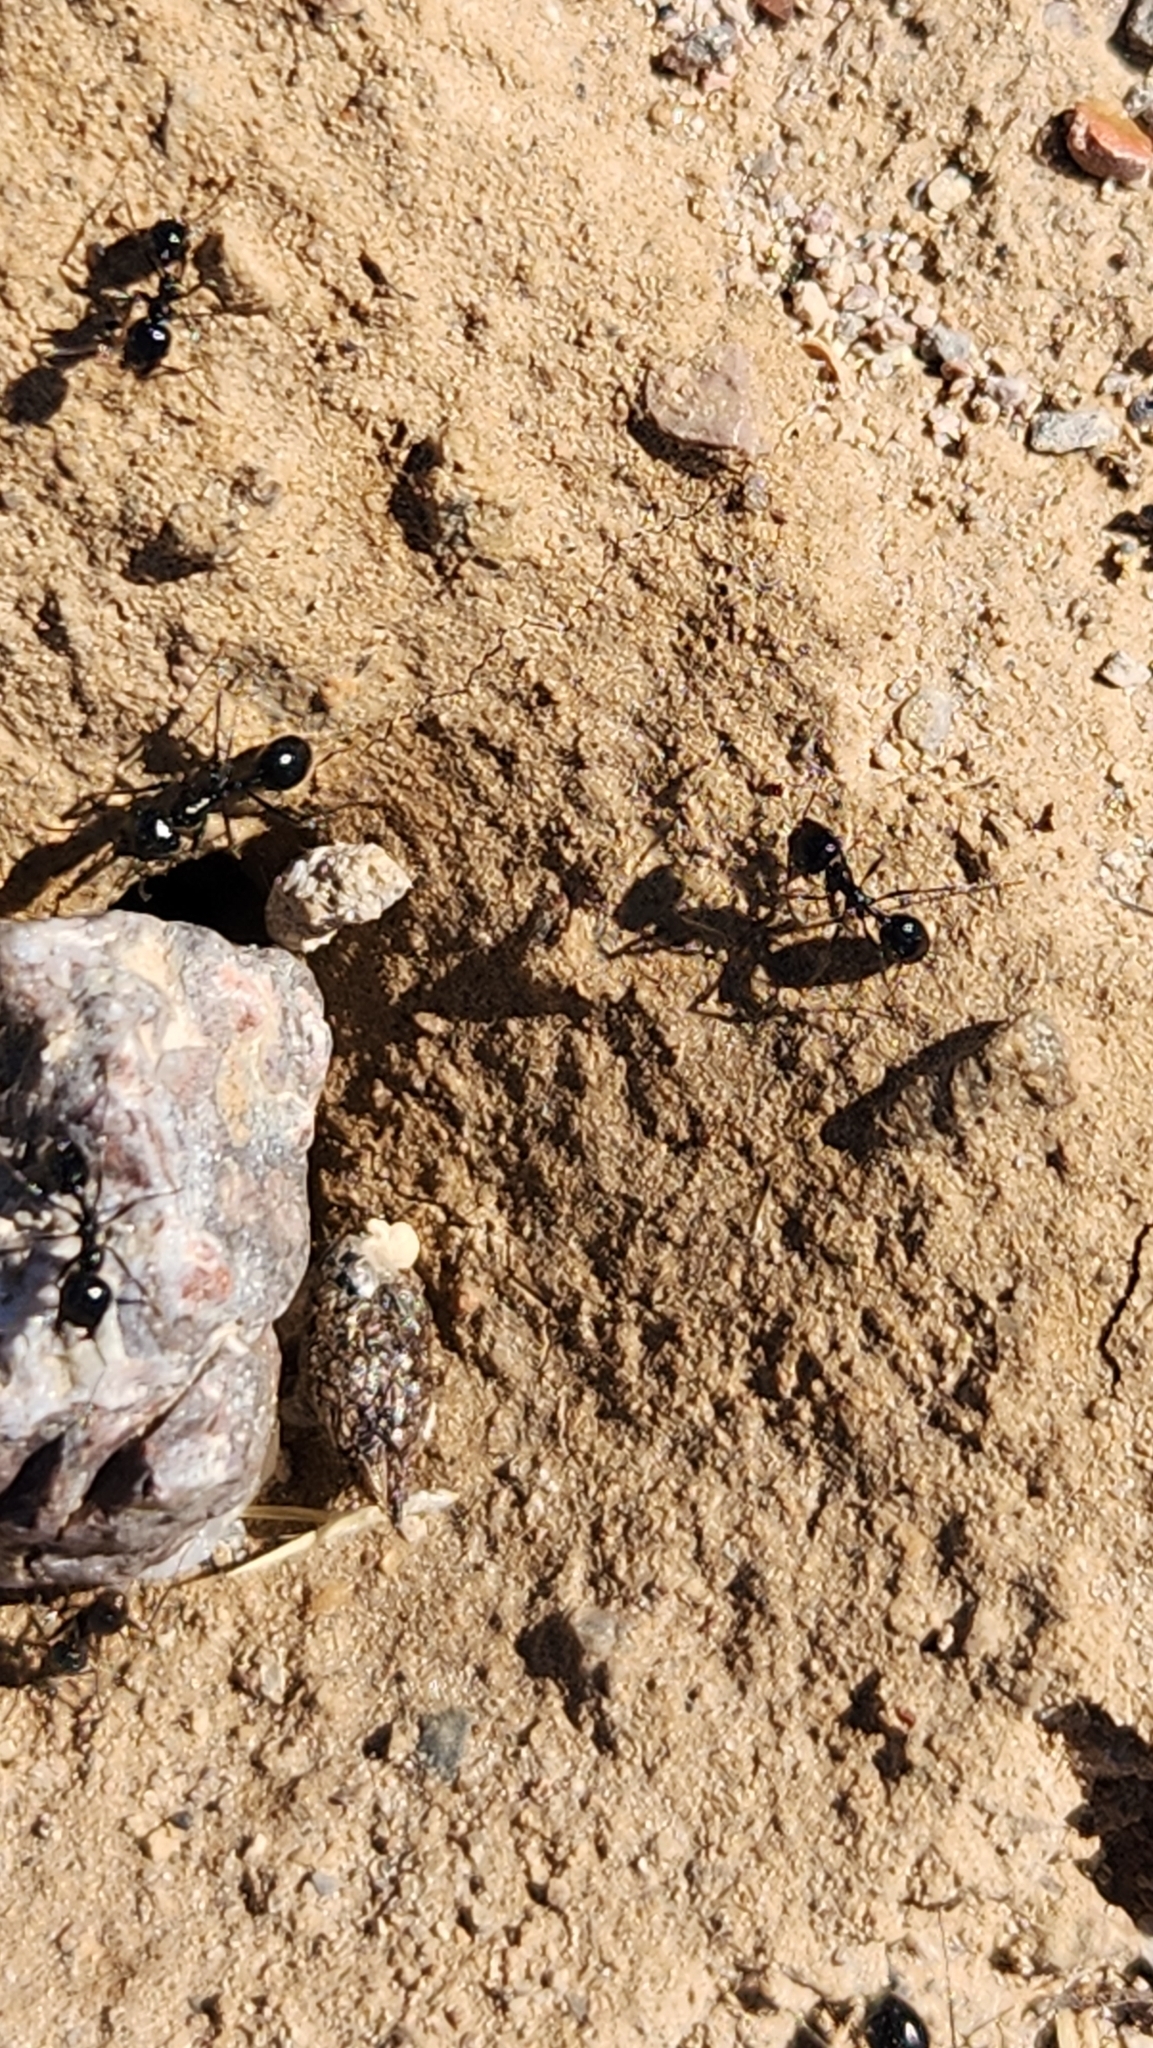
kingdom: Animalia
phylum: Arthropoda
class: Insecta
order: Hymenoptera
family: Formicidae
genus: Messor
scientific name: Messor pergandei
